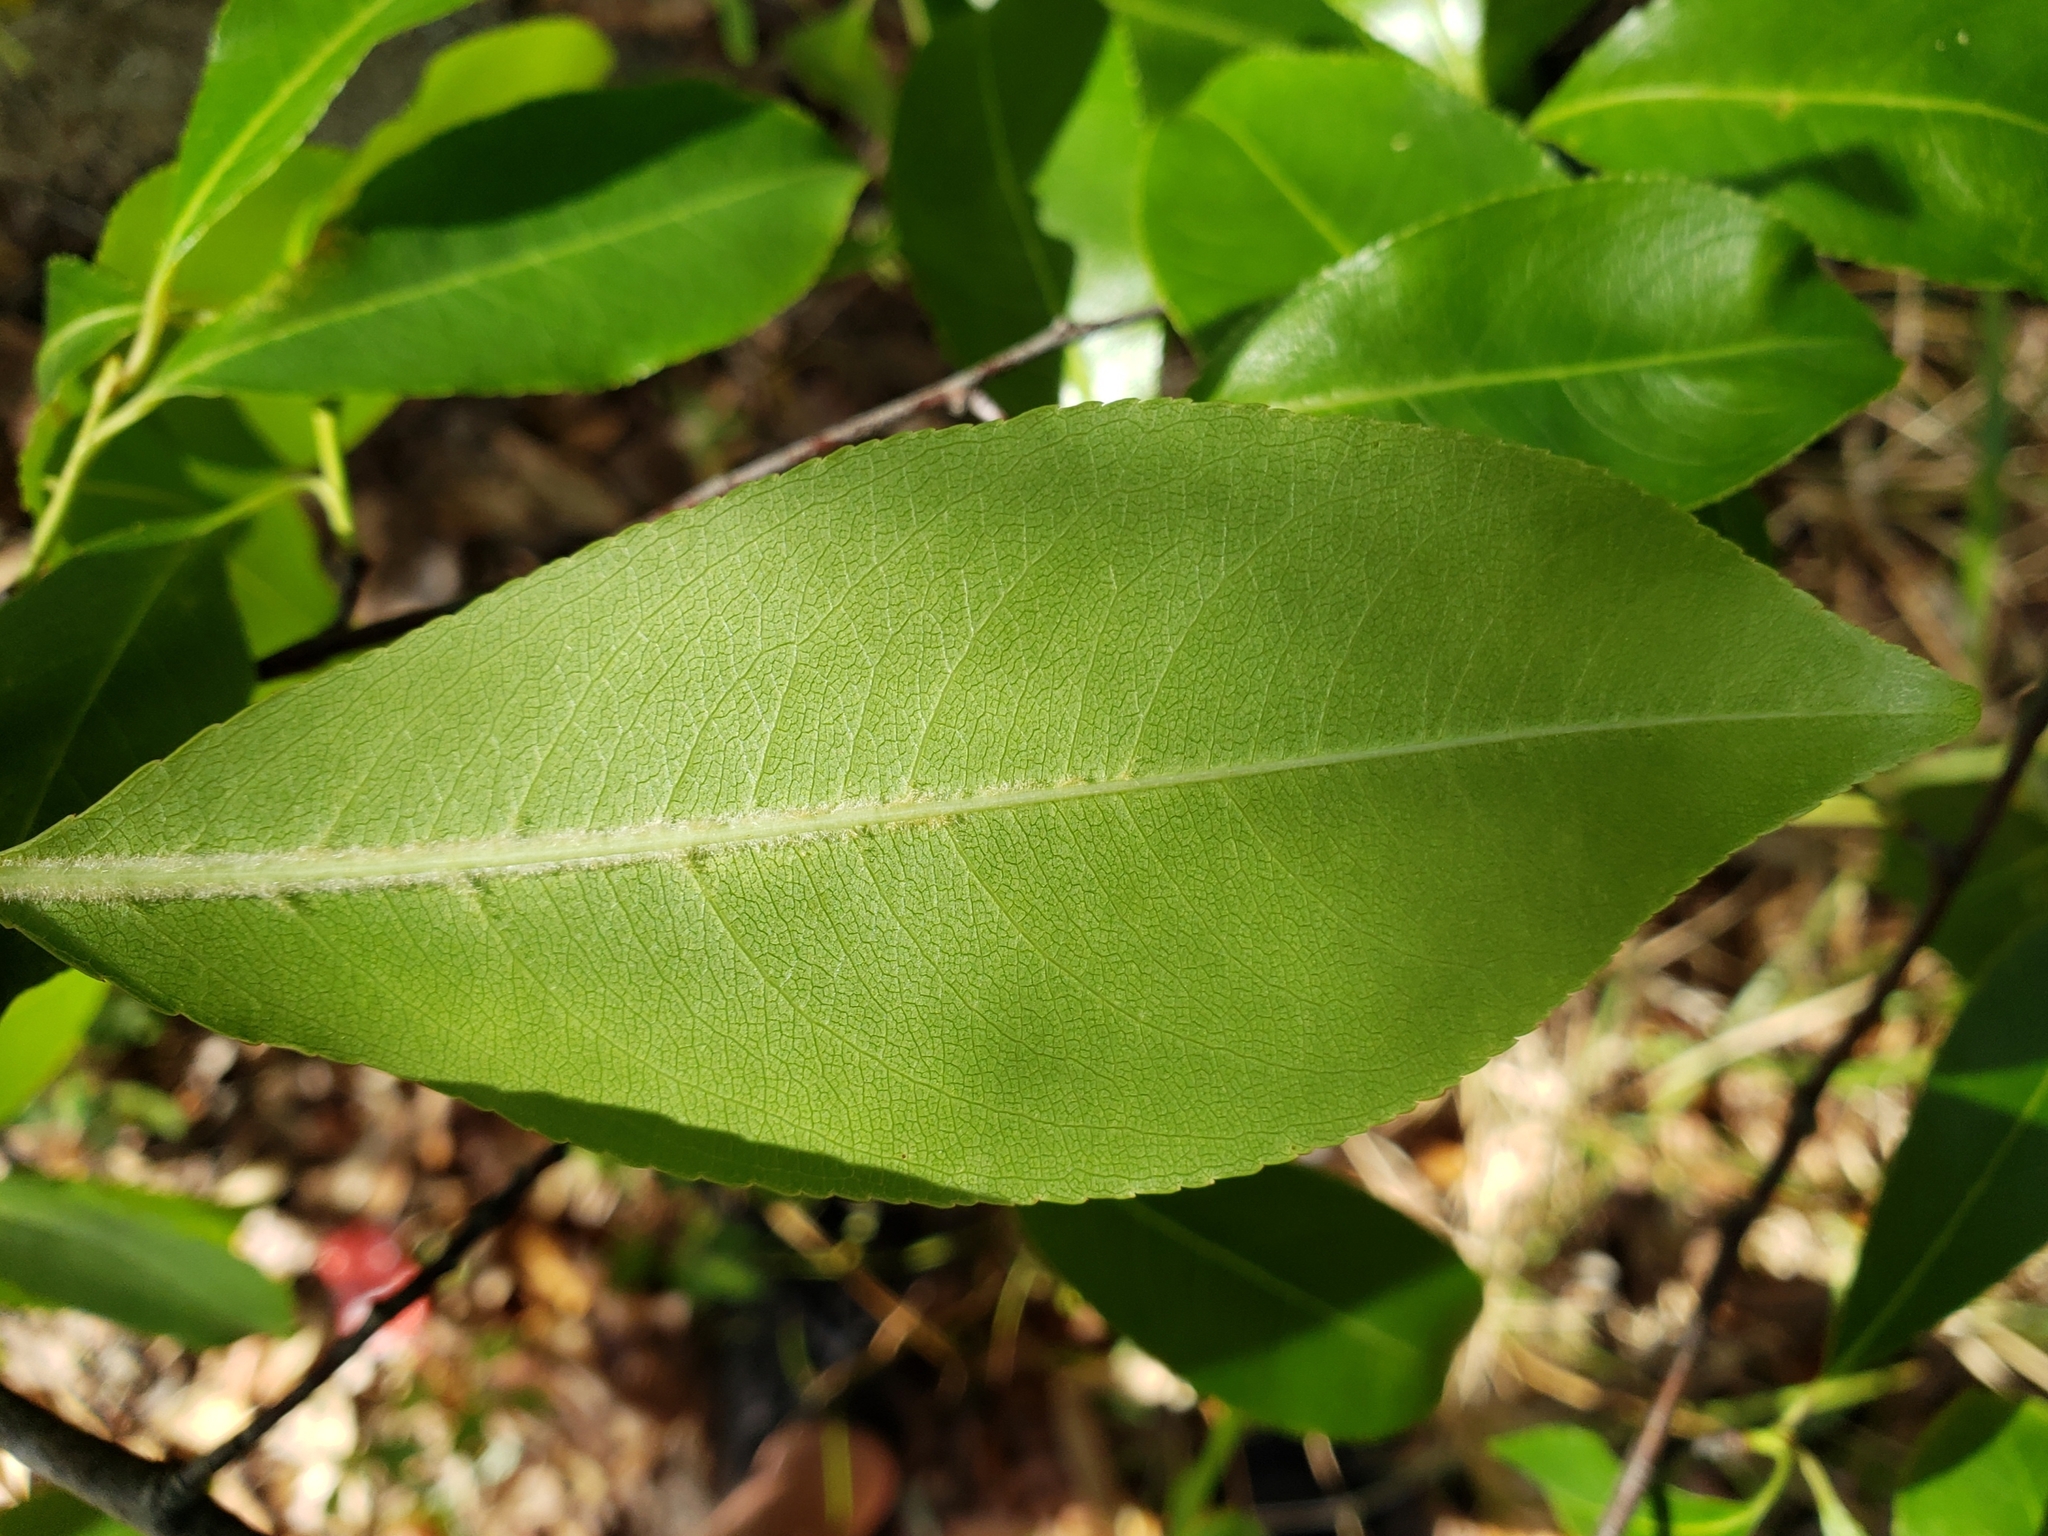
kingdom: Plantae
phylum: Tracheophyta
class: Magnoliopsida
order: Rosales
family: Rosaceae
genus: Prunus
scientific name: Prunus serotina
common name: Black cherry
